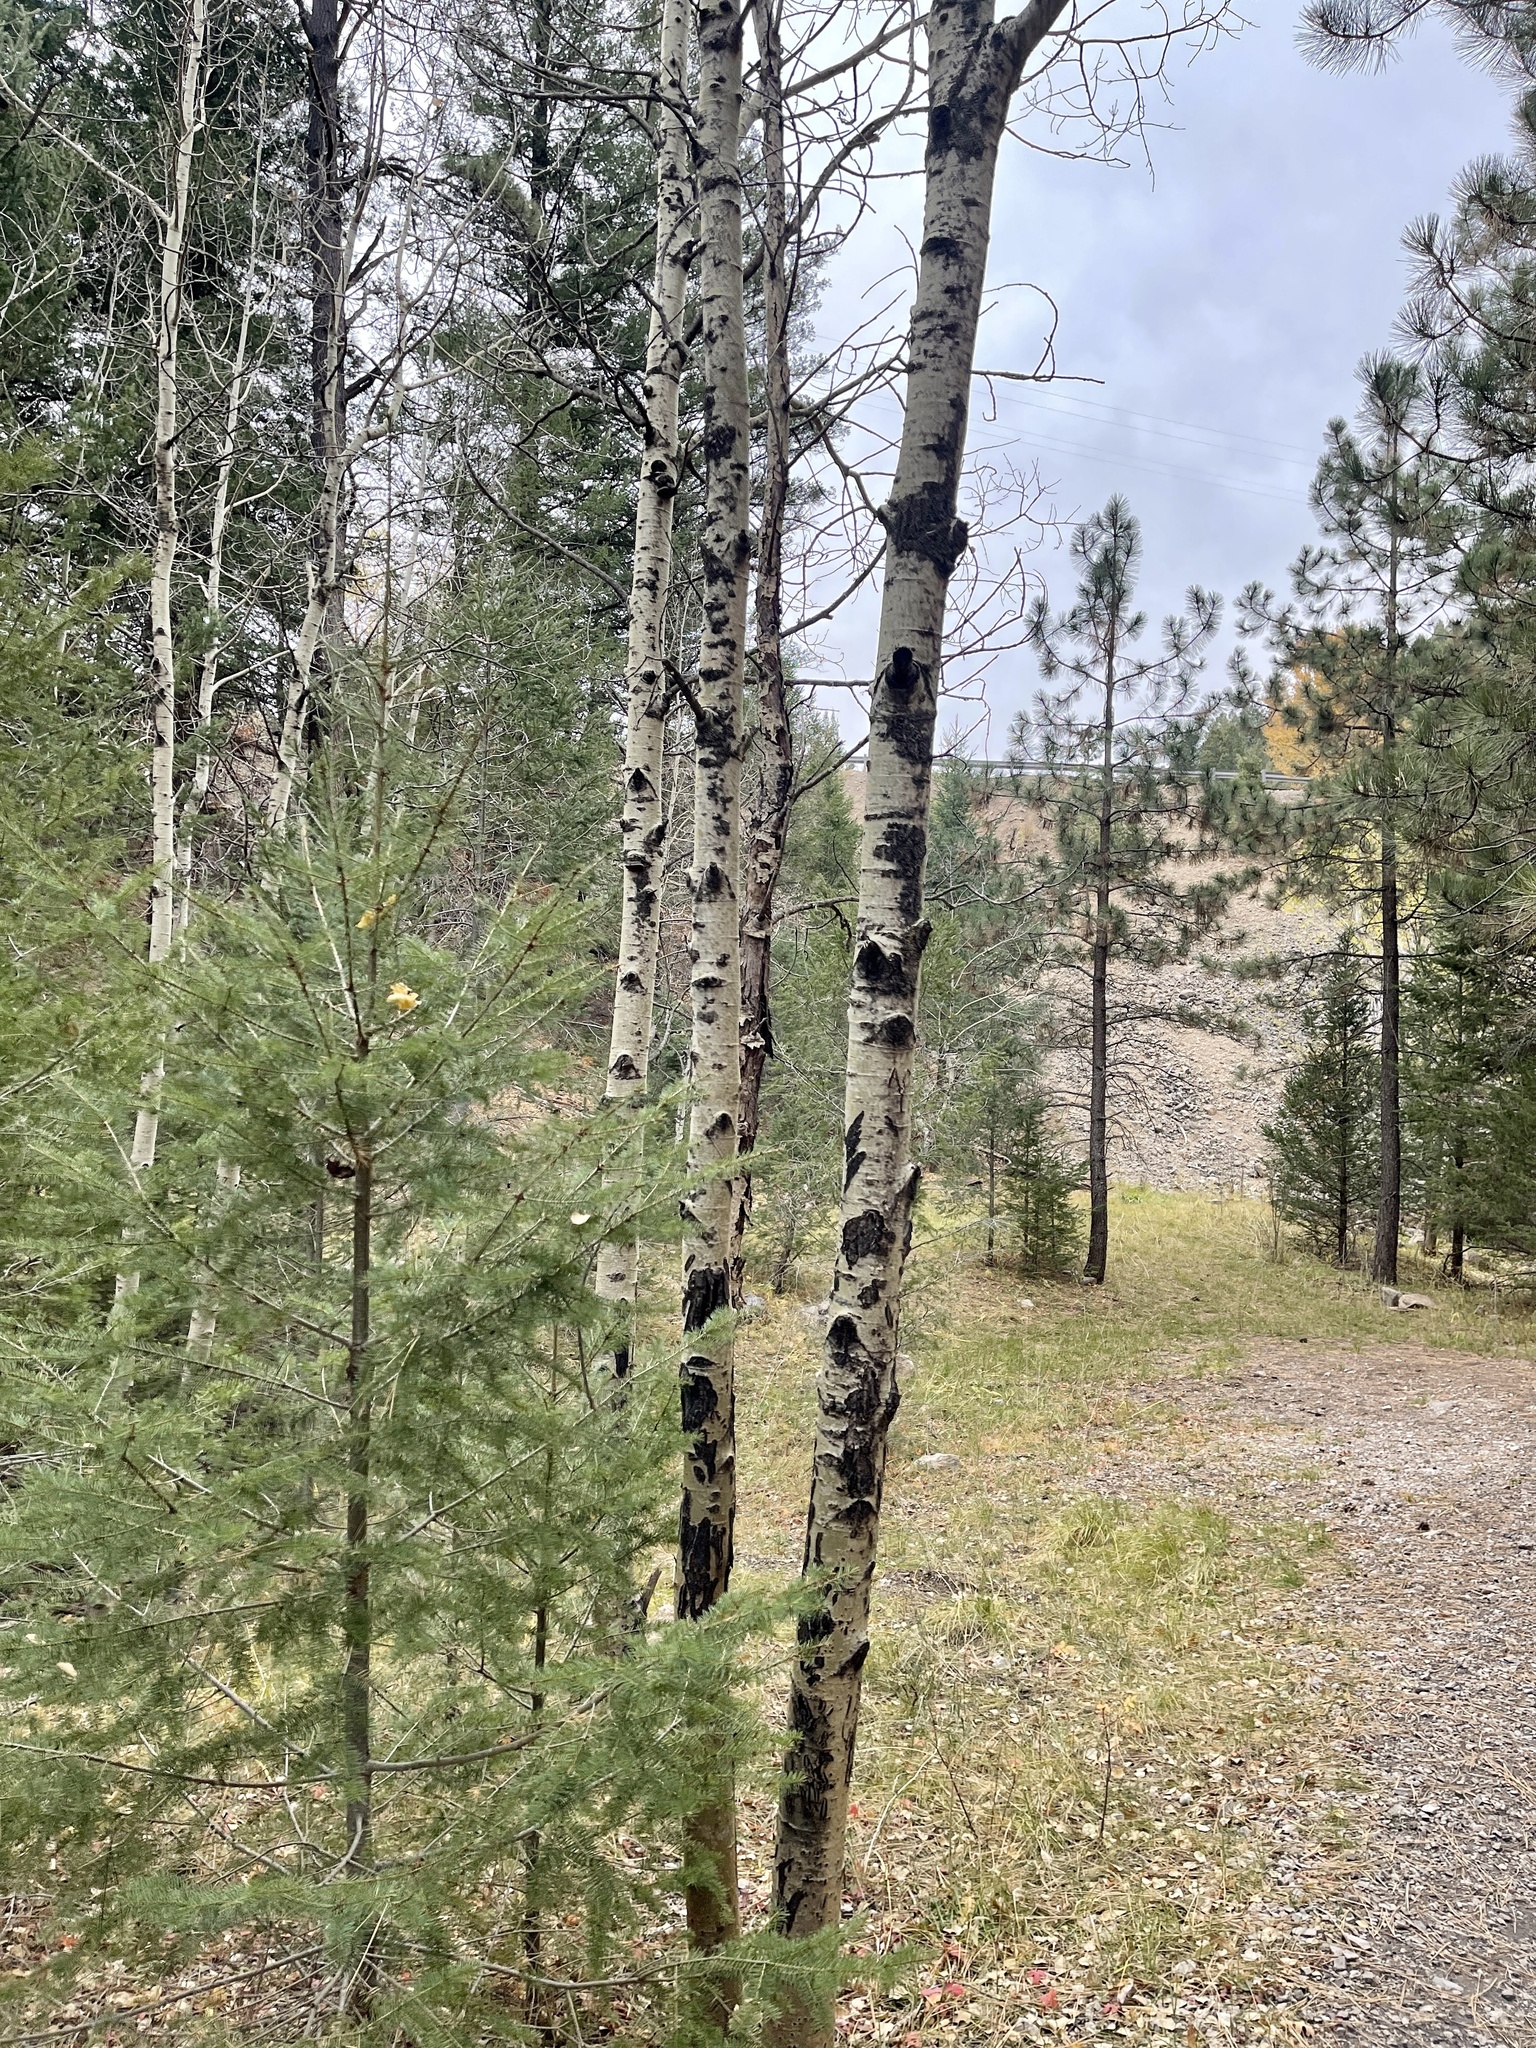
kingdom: Plantae
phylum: Tracheophyta
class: Magnoliopsida
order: Malpighiales
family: Salicaceae
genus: Populus
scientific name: Populus tremuloides
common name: Quaking aspen
